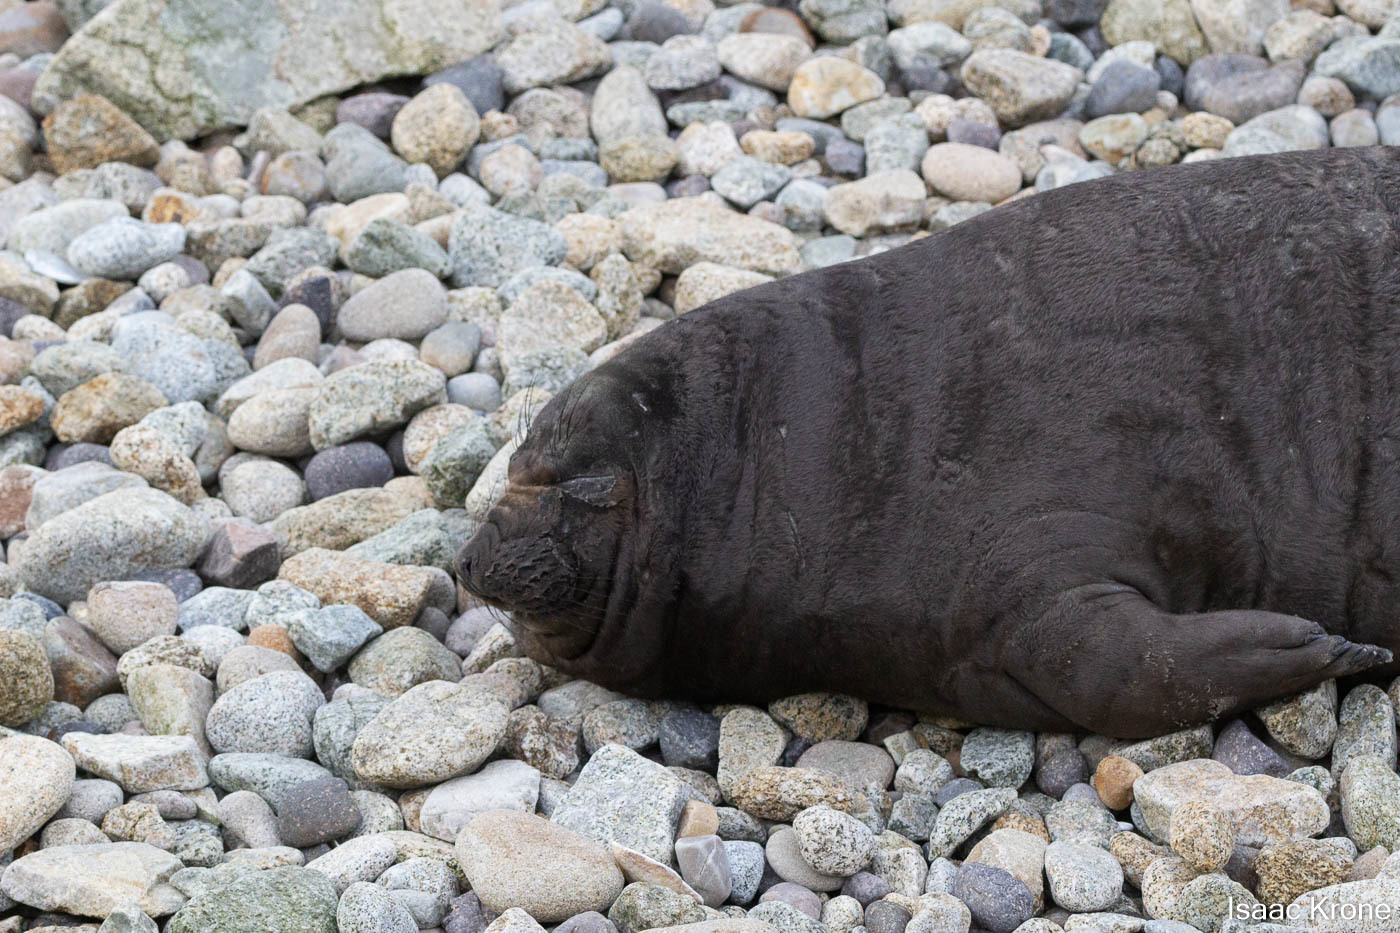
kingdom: Animalia
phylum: Chordata
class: Mammalia
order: Carnivora
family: Phocidae
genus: Mirounga
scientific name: Mirounga angustirostris
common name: Northern elephant seal
